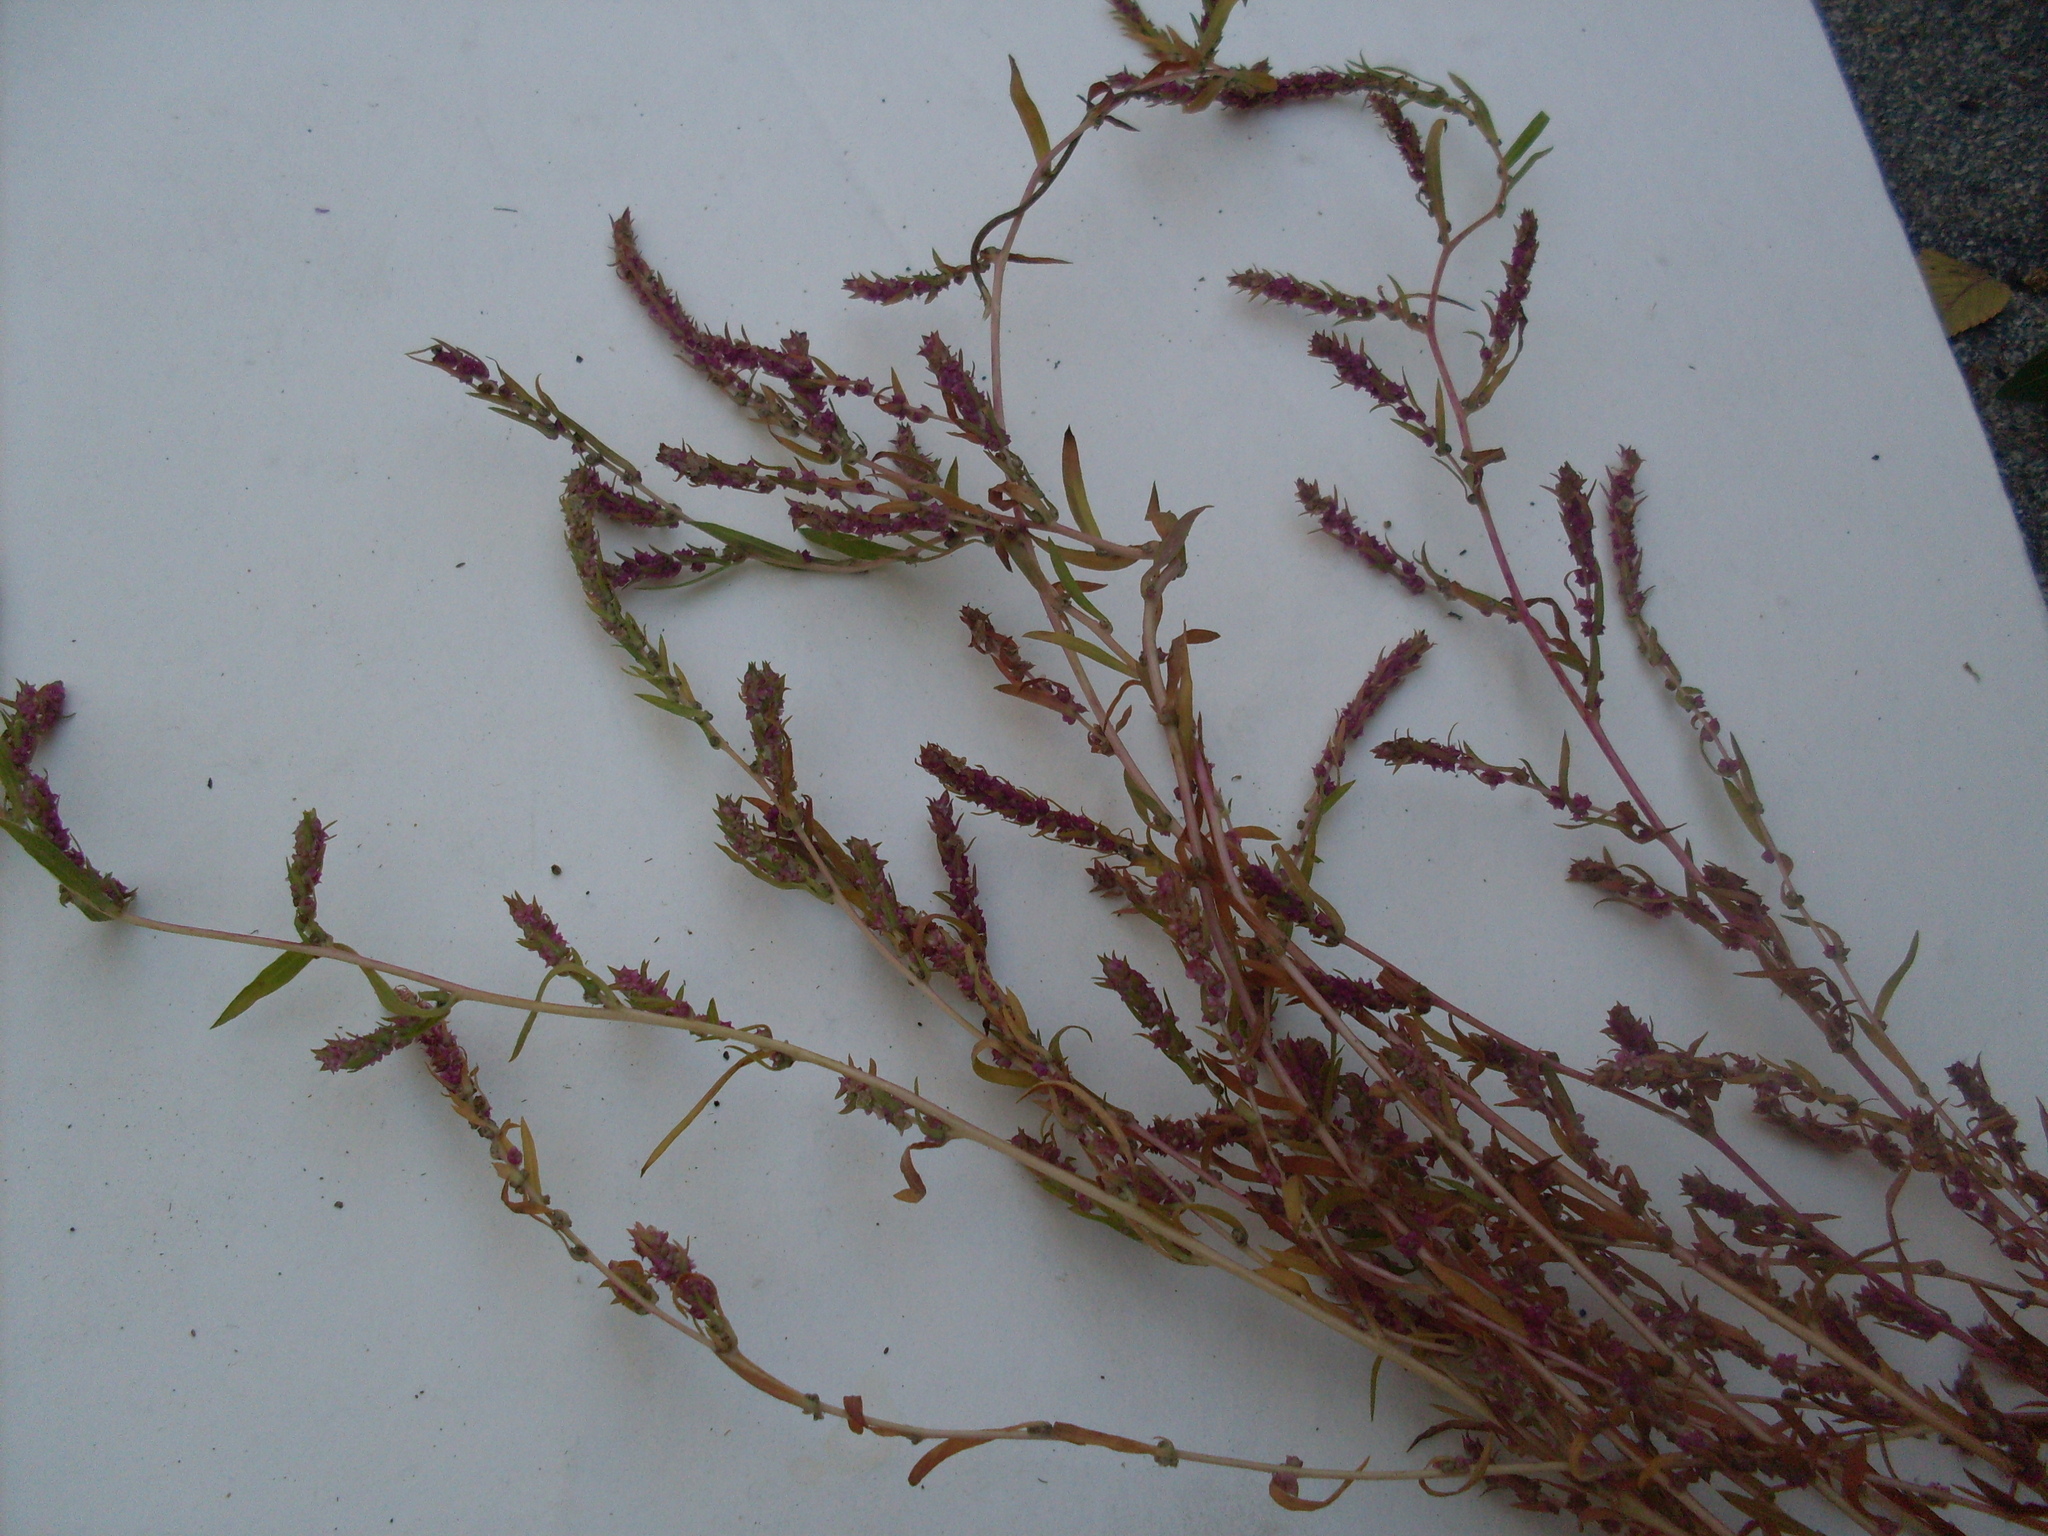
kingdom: Plantae
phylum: Tracheophyta
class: Magnoliopsida
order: Caryophyllales
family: Amaranthaceae
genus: Bassia
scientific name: Bassia scoparia
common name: Belvedere
